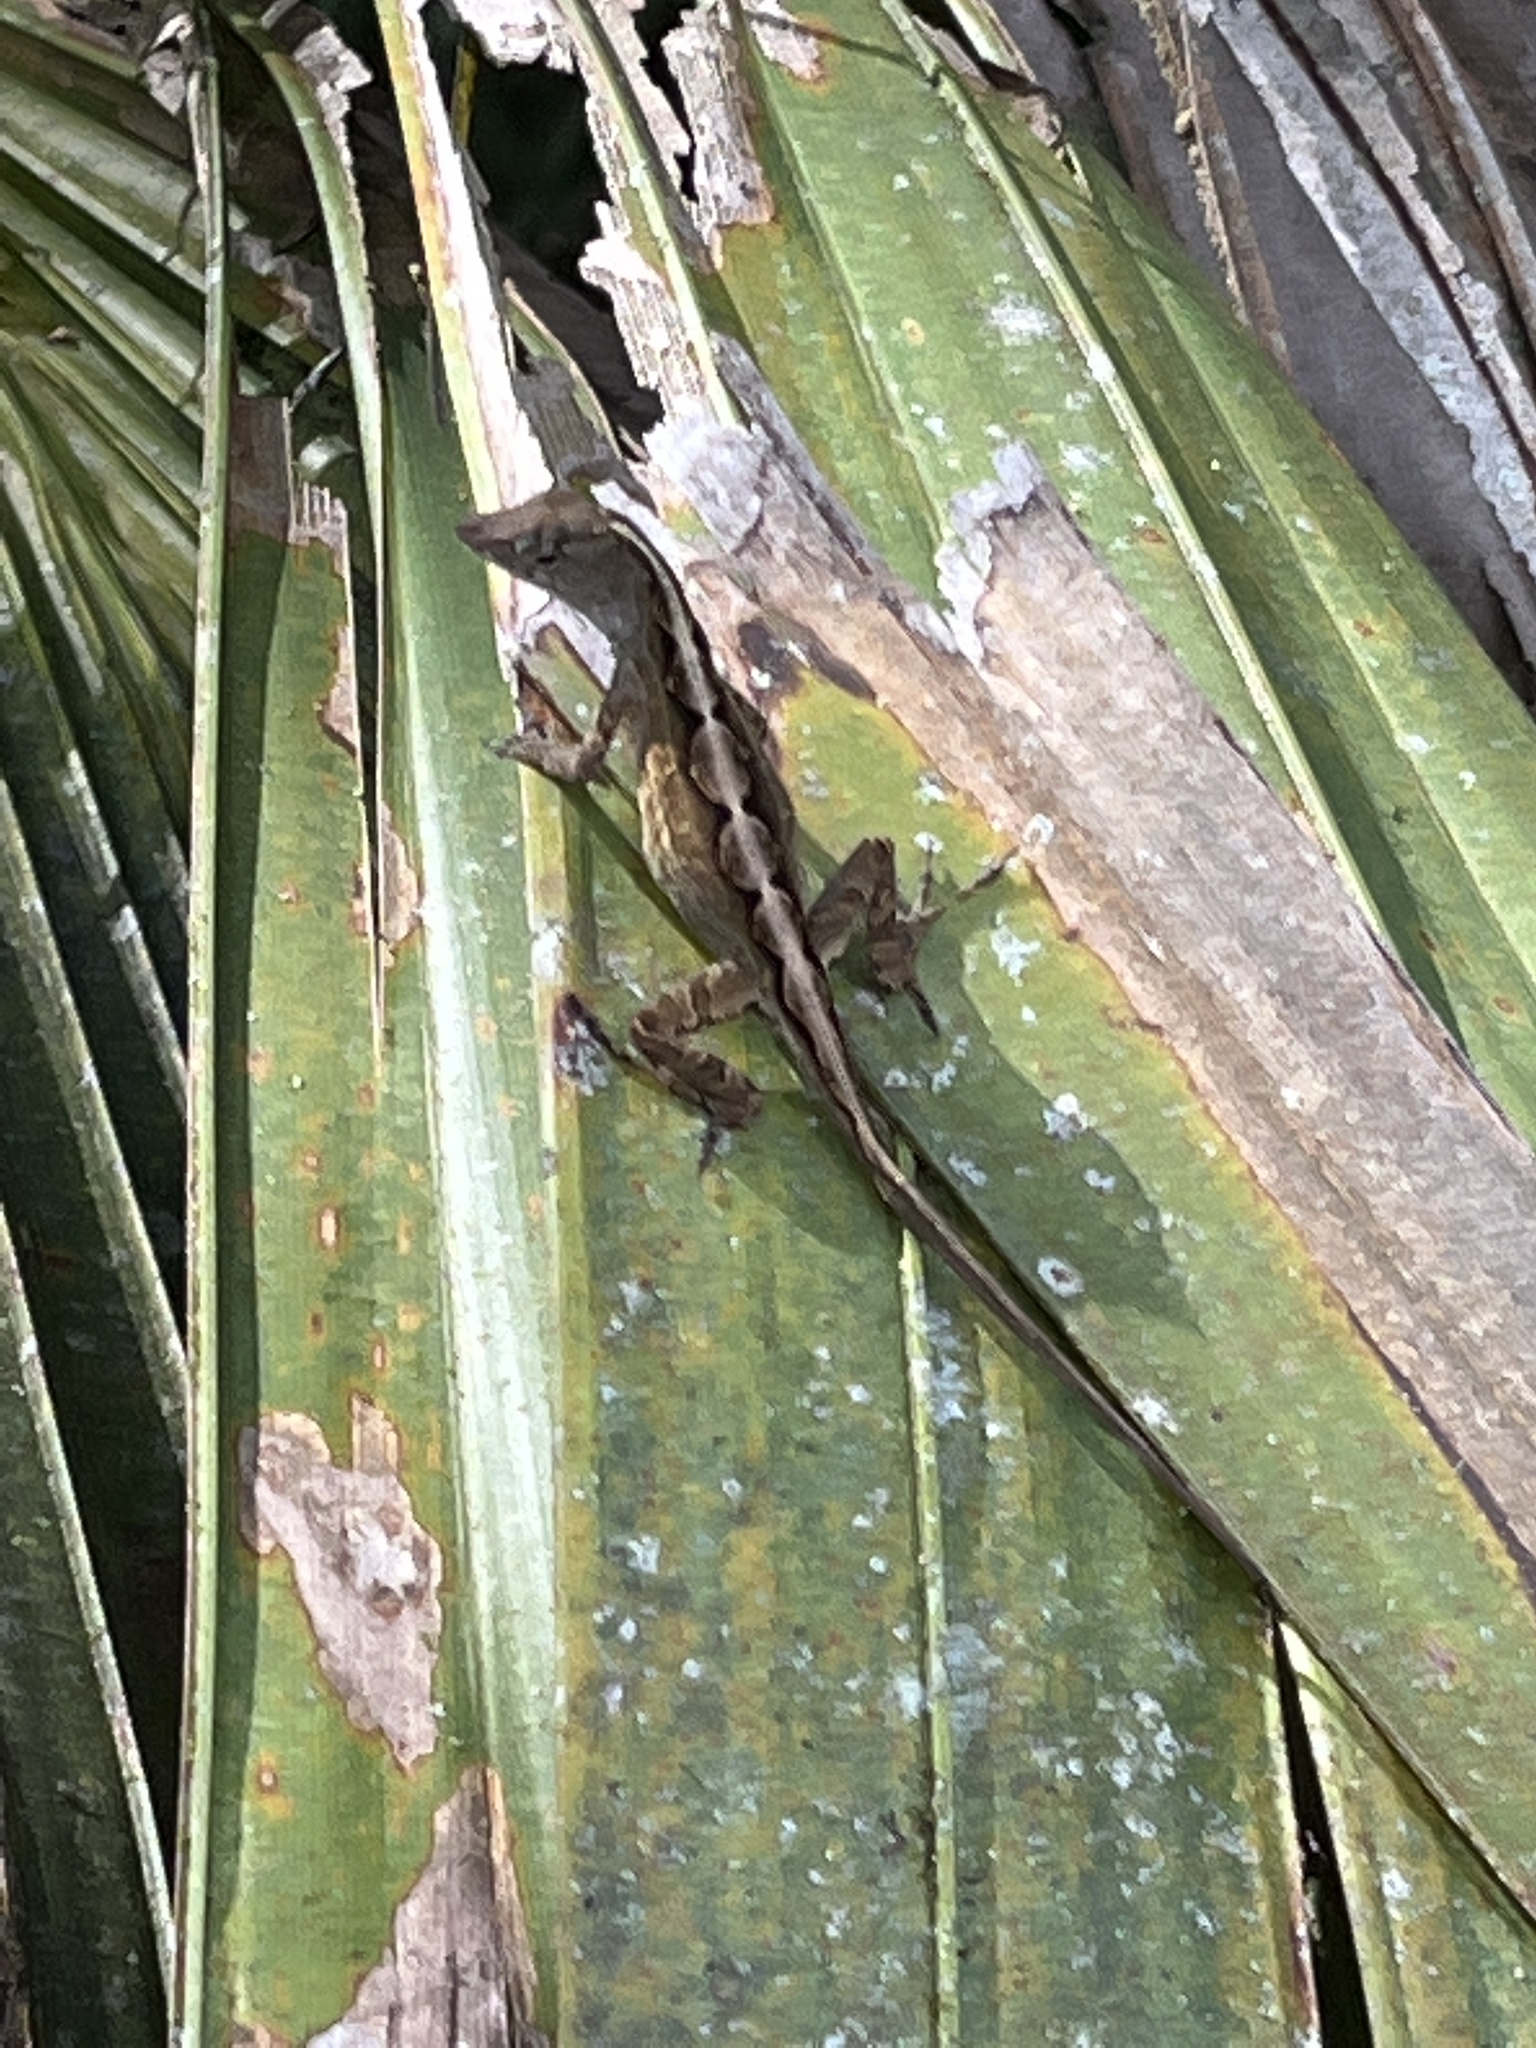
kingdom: Animalia
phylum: Chordata
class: Squamata
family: Dactyloidae
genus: Anolis
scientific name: Anolis sagrei
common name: Brown anole
